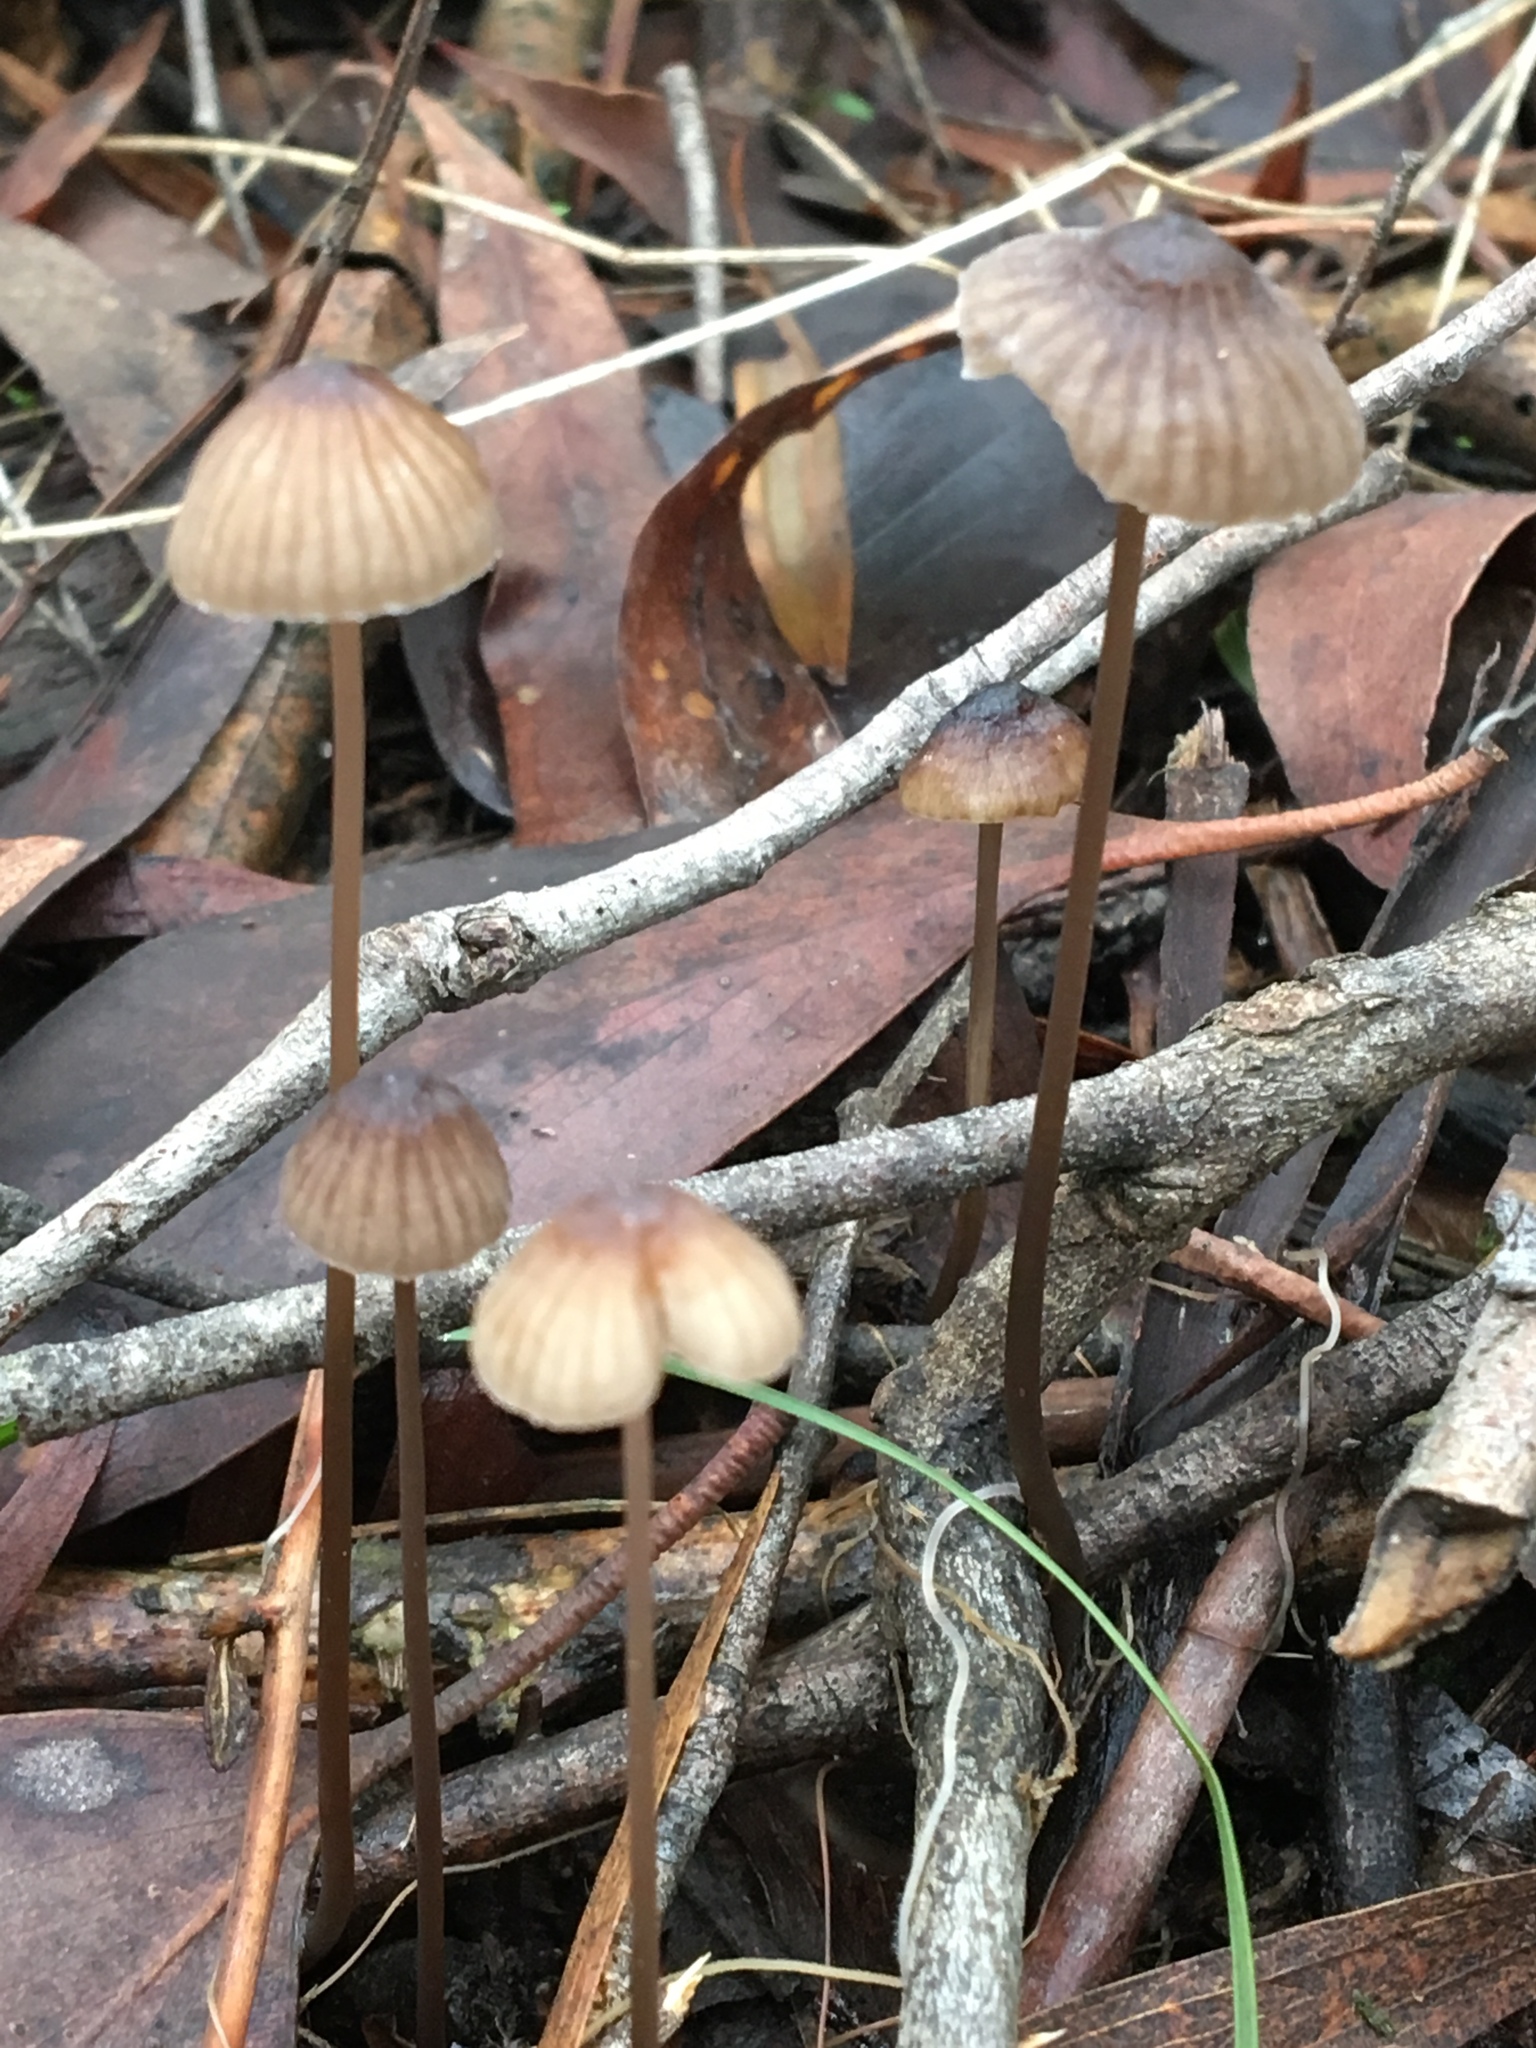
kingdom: Fungi
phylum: Basidiomycota
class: Agaricomycetes
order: Agaricales
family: Mycenaceae
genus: Mycena
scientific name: Mycena cystidiosa
